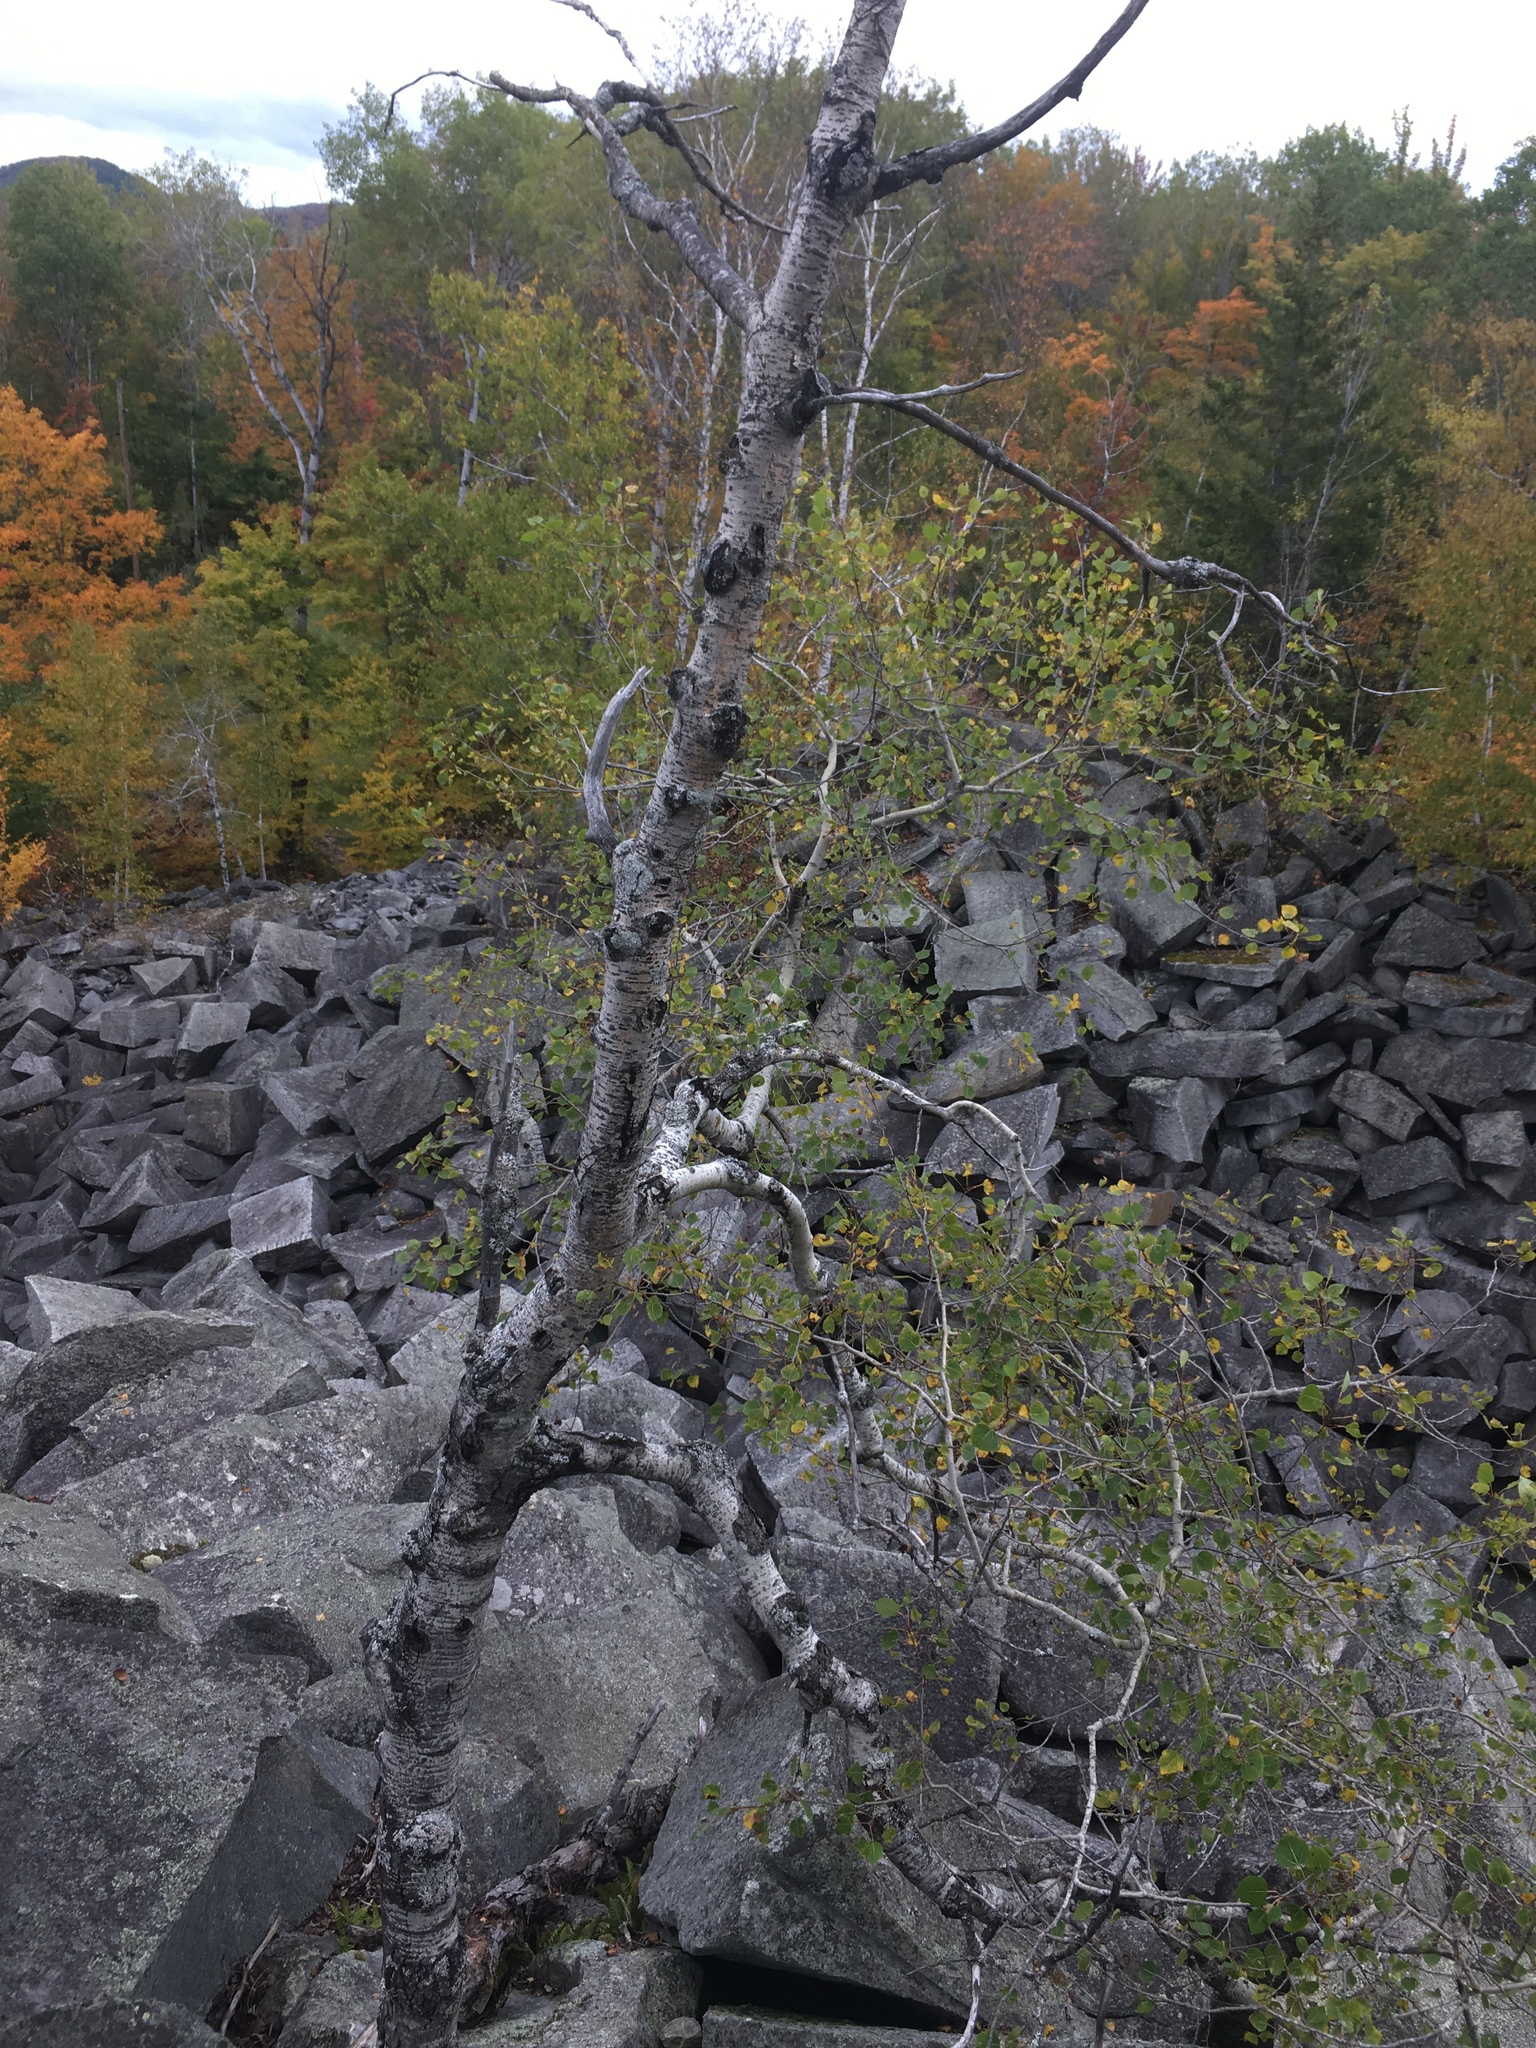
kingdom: Plantae
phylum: Tracheophyta
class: Magnoliopsida
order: Malpighiales
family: Salicaceae
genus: Populus
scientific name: Populus tremuloides
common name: Quaking aspen
